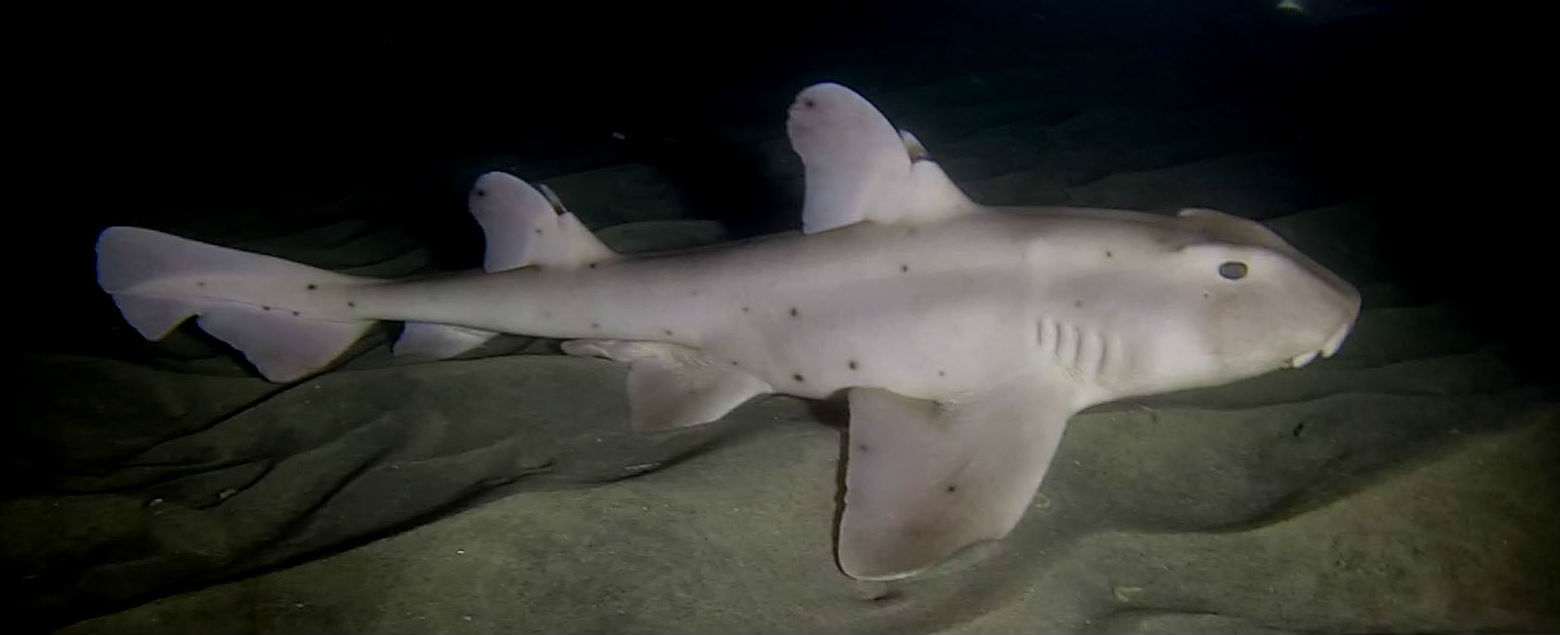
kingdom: Animalia
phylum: Chordata
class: Elasmobranchii
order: Heterodontiformes
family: Heterodontidae
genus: Heterodontus
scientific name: Heterodontus francisci
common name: Horn shark
